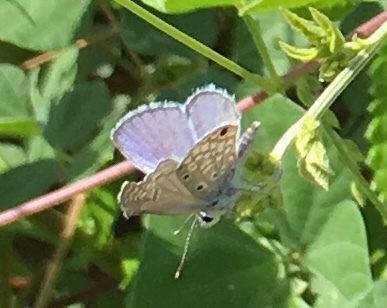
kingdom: Animalia
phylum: Arthropoda
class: Insecta
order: Lepidoptera
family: Lycaenidae
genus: Hemiargus
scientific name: Hemiargus hanno
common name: Common blue
